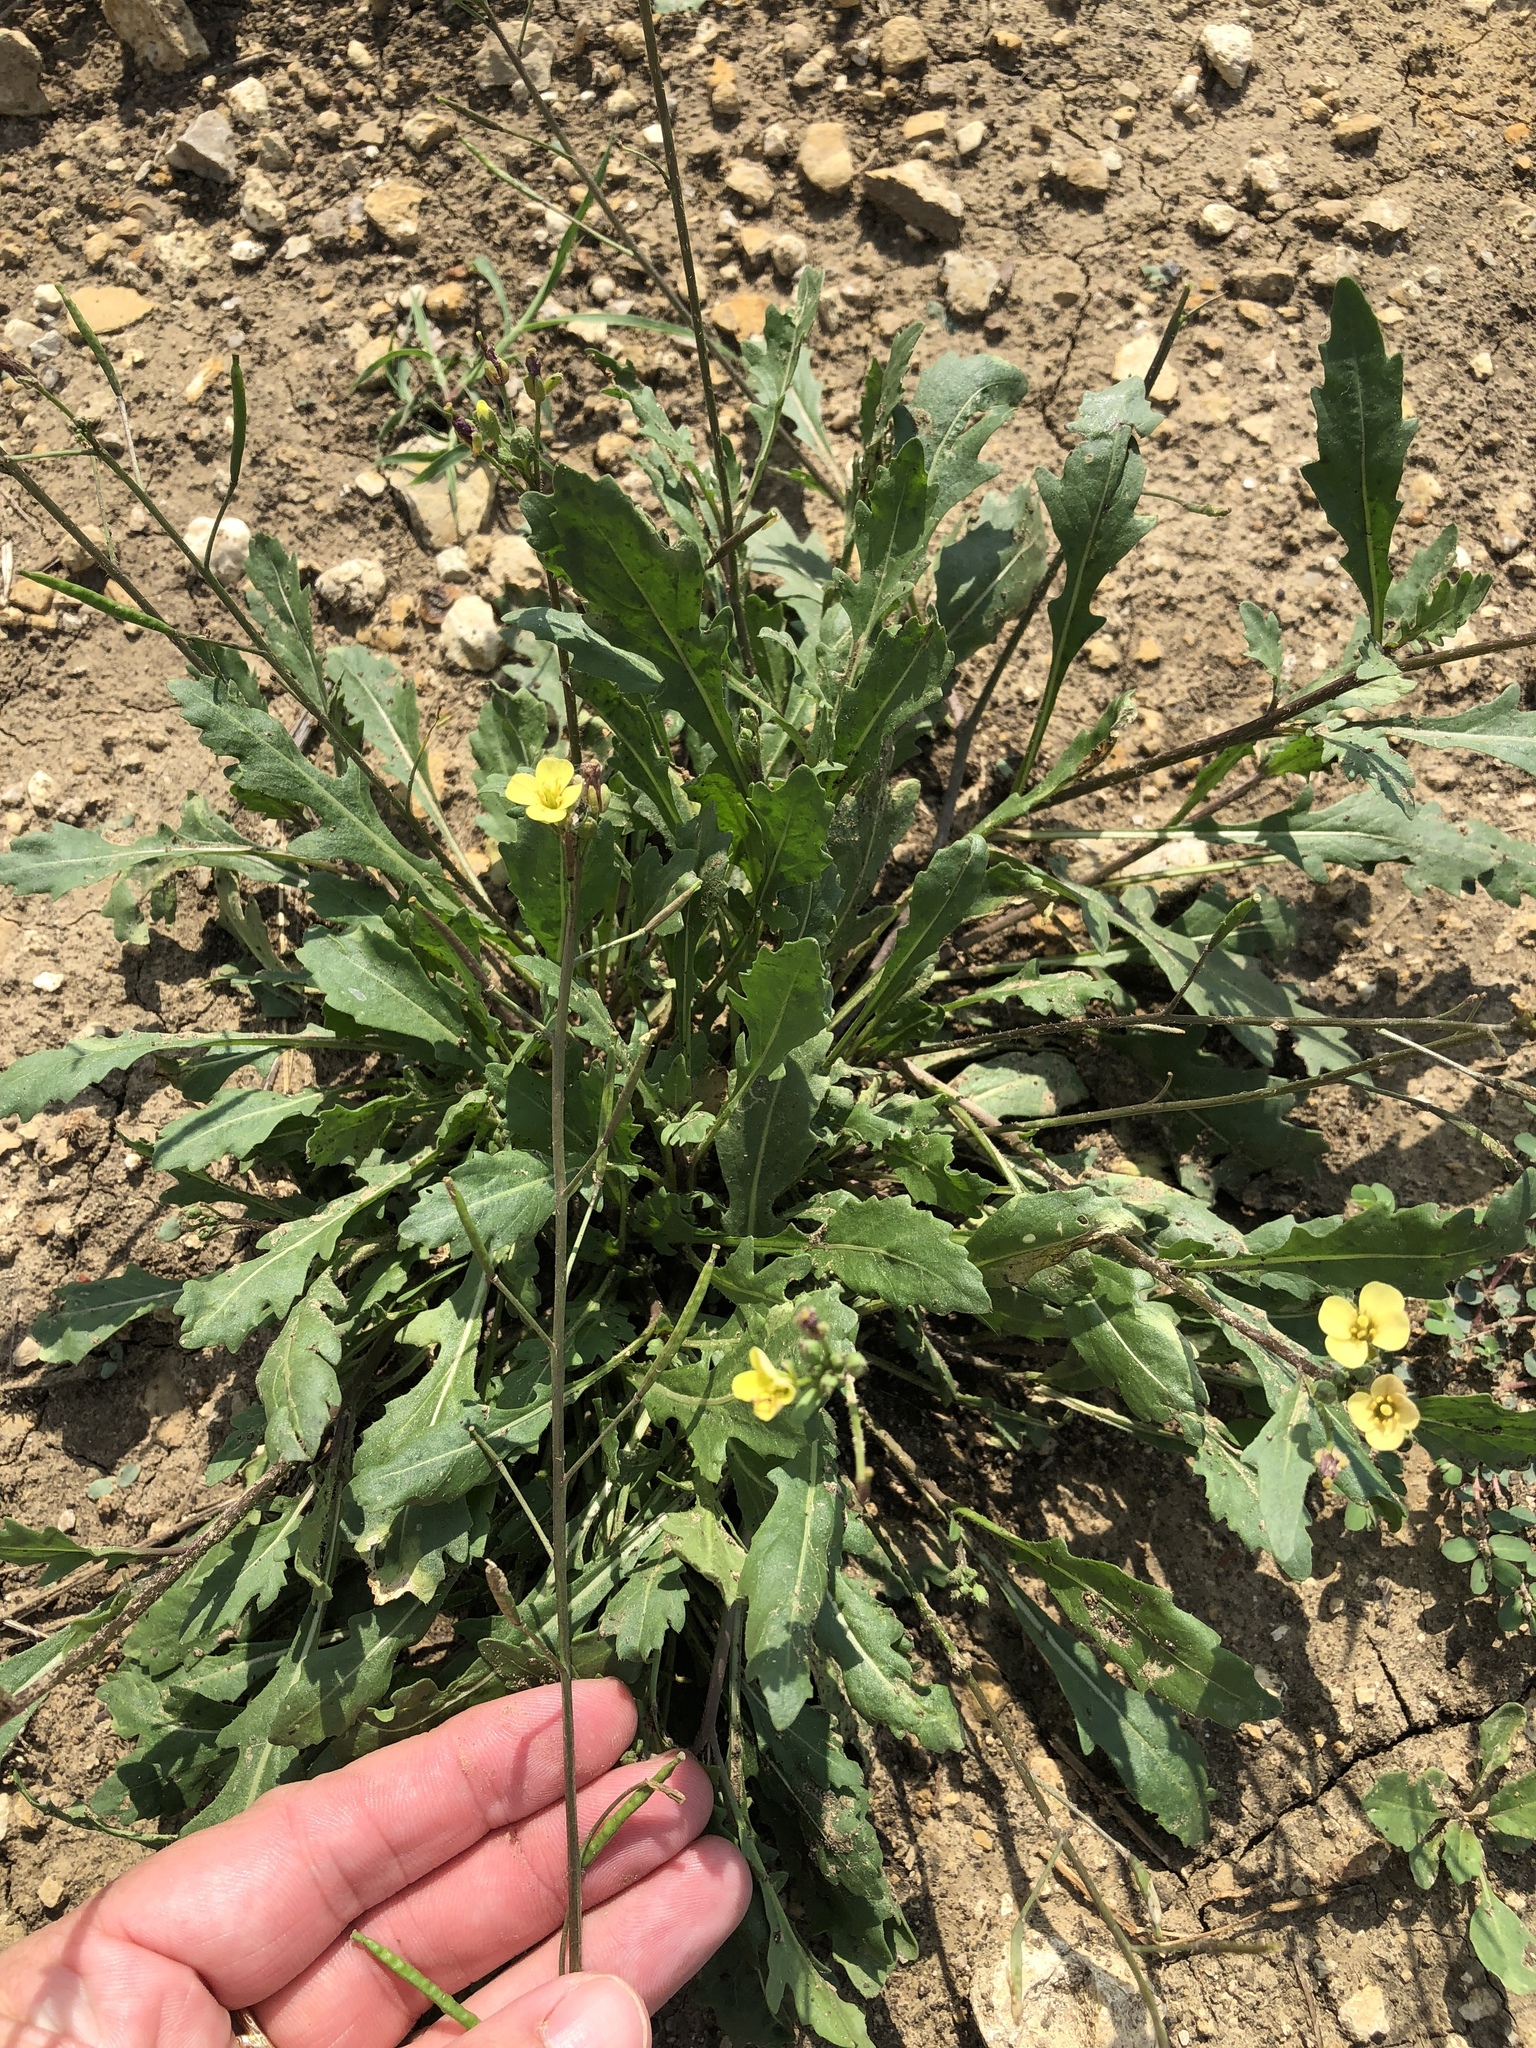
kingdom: Plantae
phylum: Tracheophyta
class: Magnoliopsida
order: Brassicales
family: Brassicaceae
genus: Diplotaxis
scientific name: Diplotaxis muralis
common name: Annual wall-rocket
